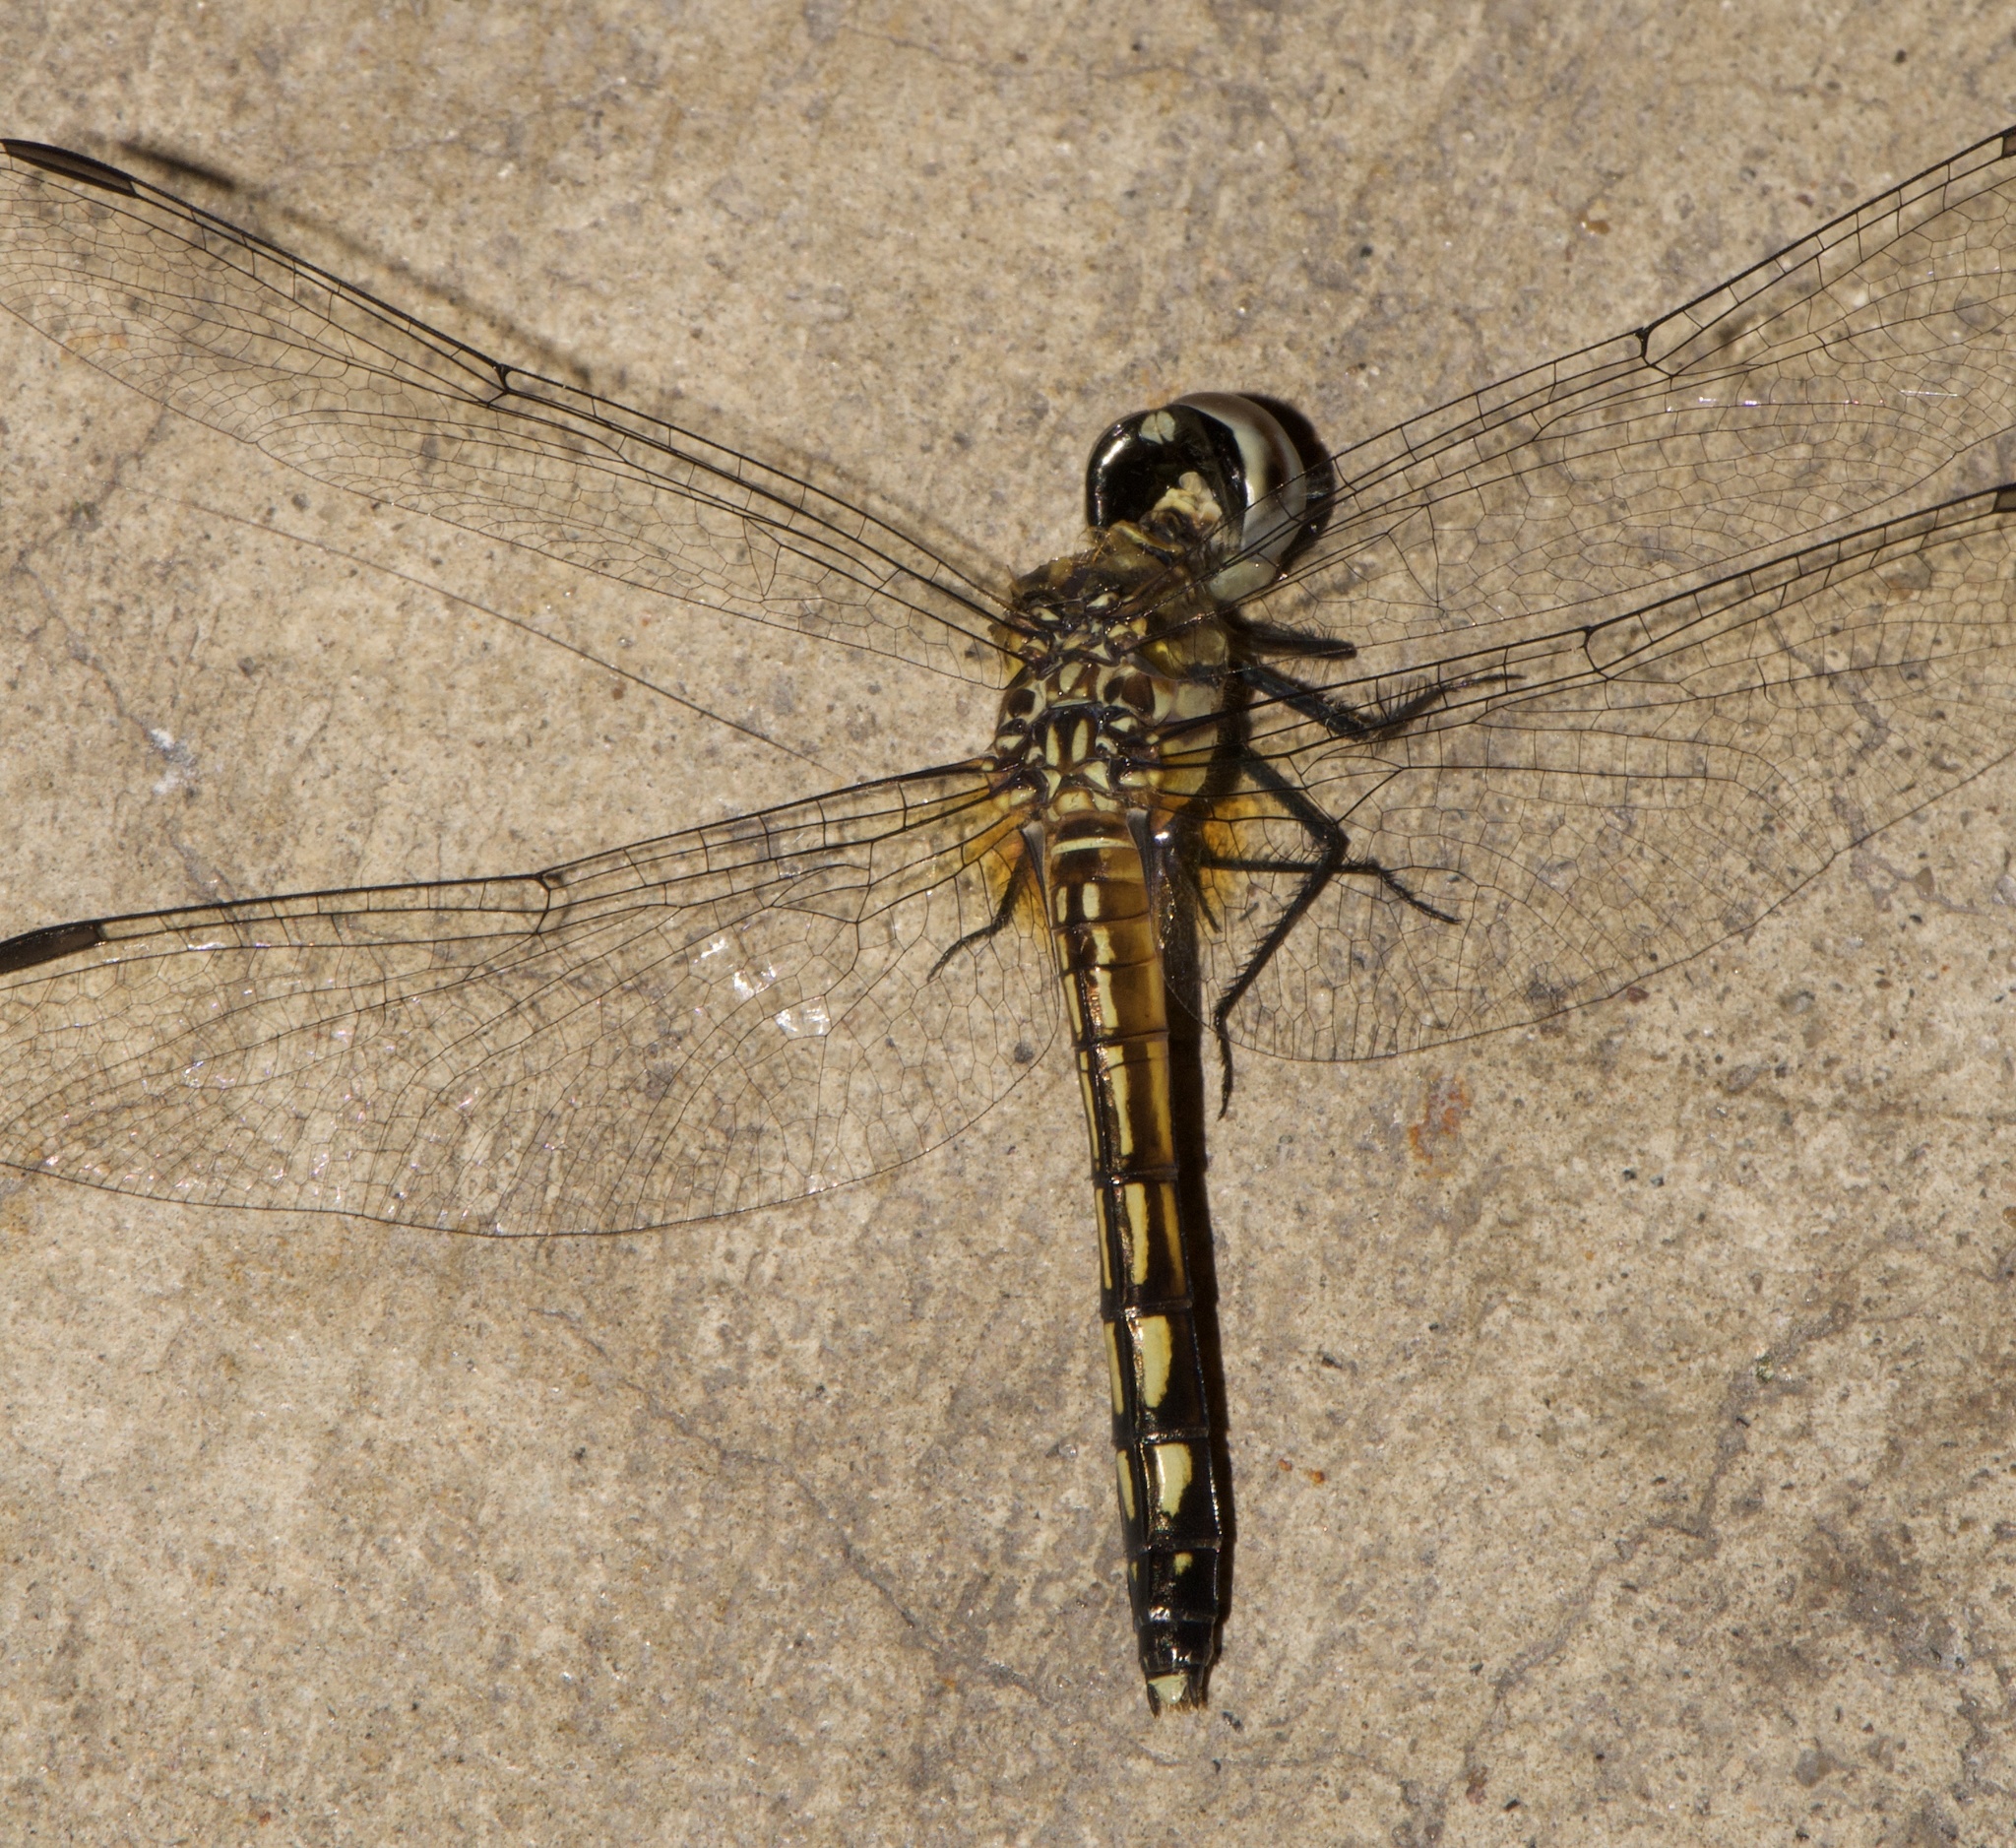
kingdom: Animalia
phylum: Arthropoda
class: Insecta
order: Odonata
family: Libellulidae
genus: Pachydiplax
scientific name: Pachydiplax longipennis
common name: Blue dasher
